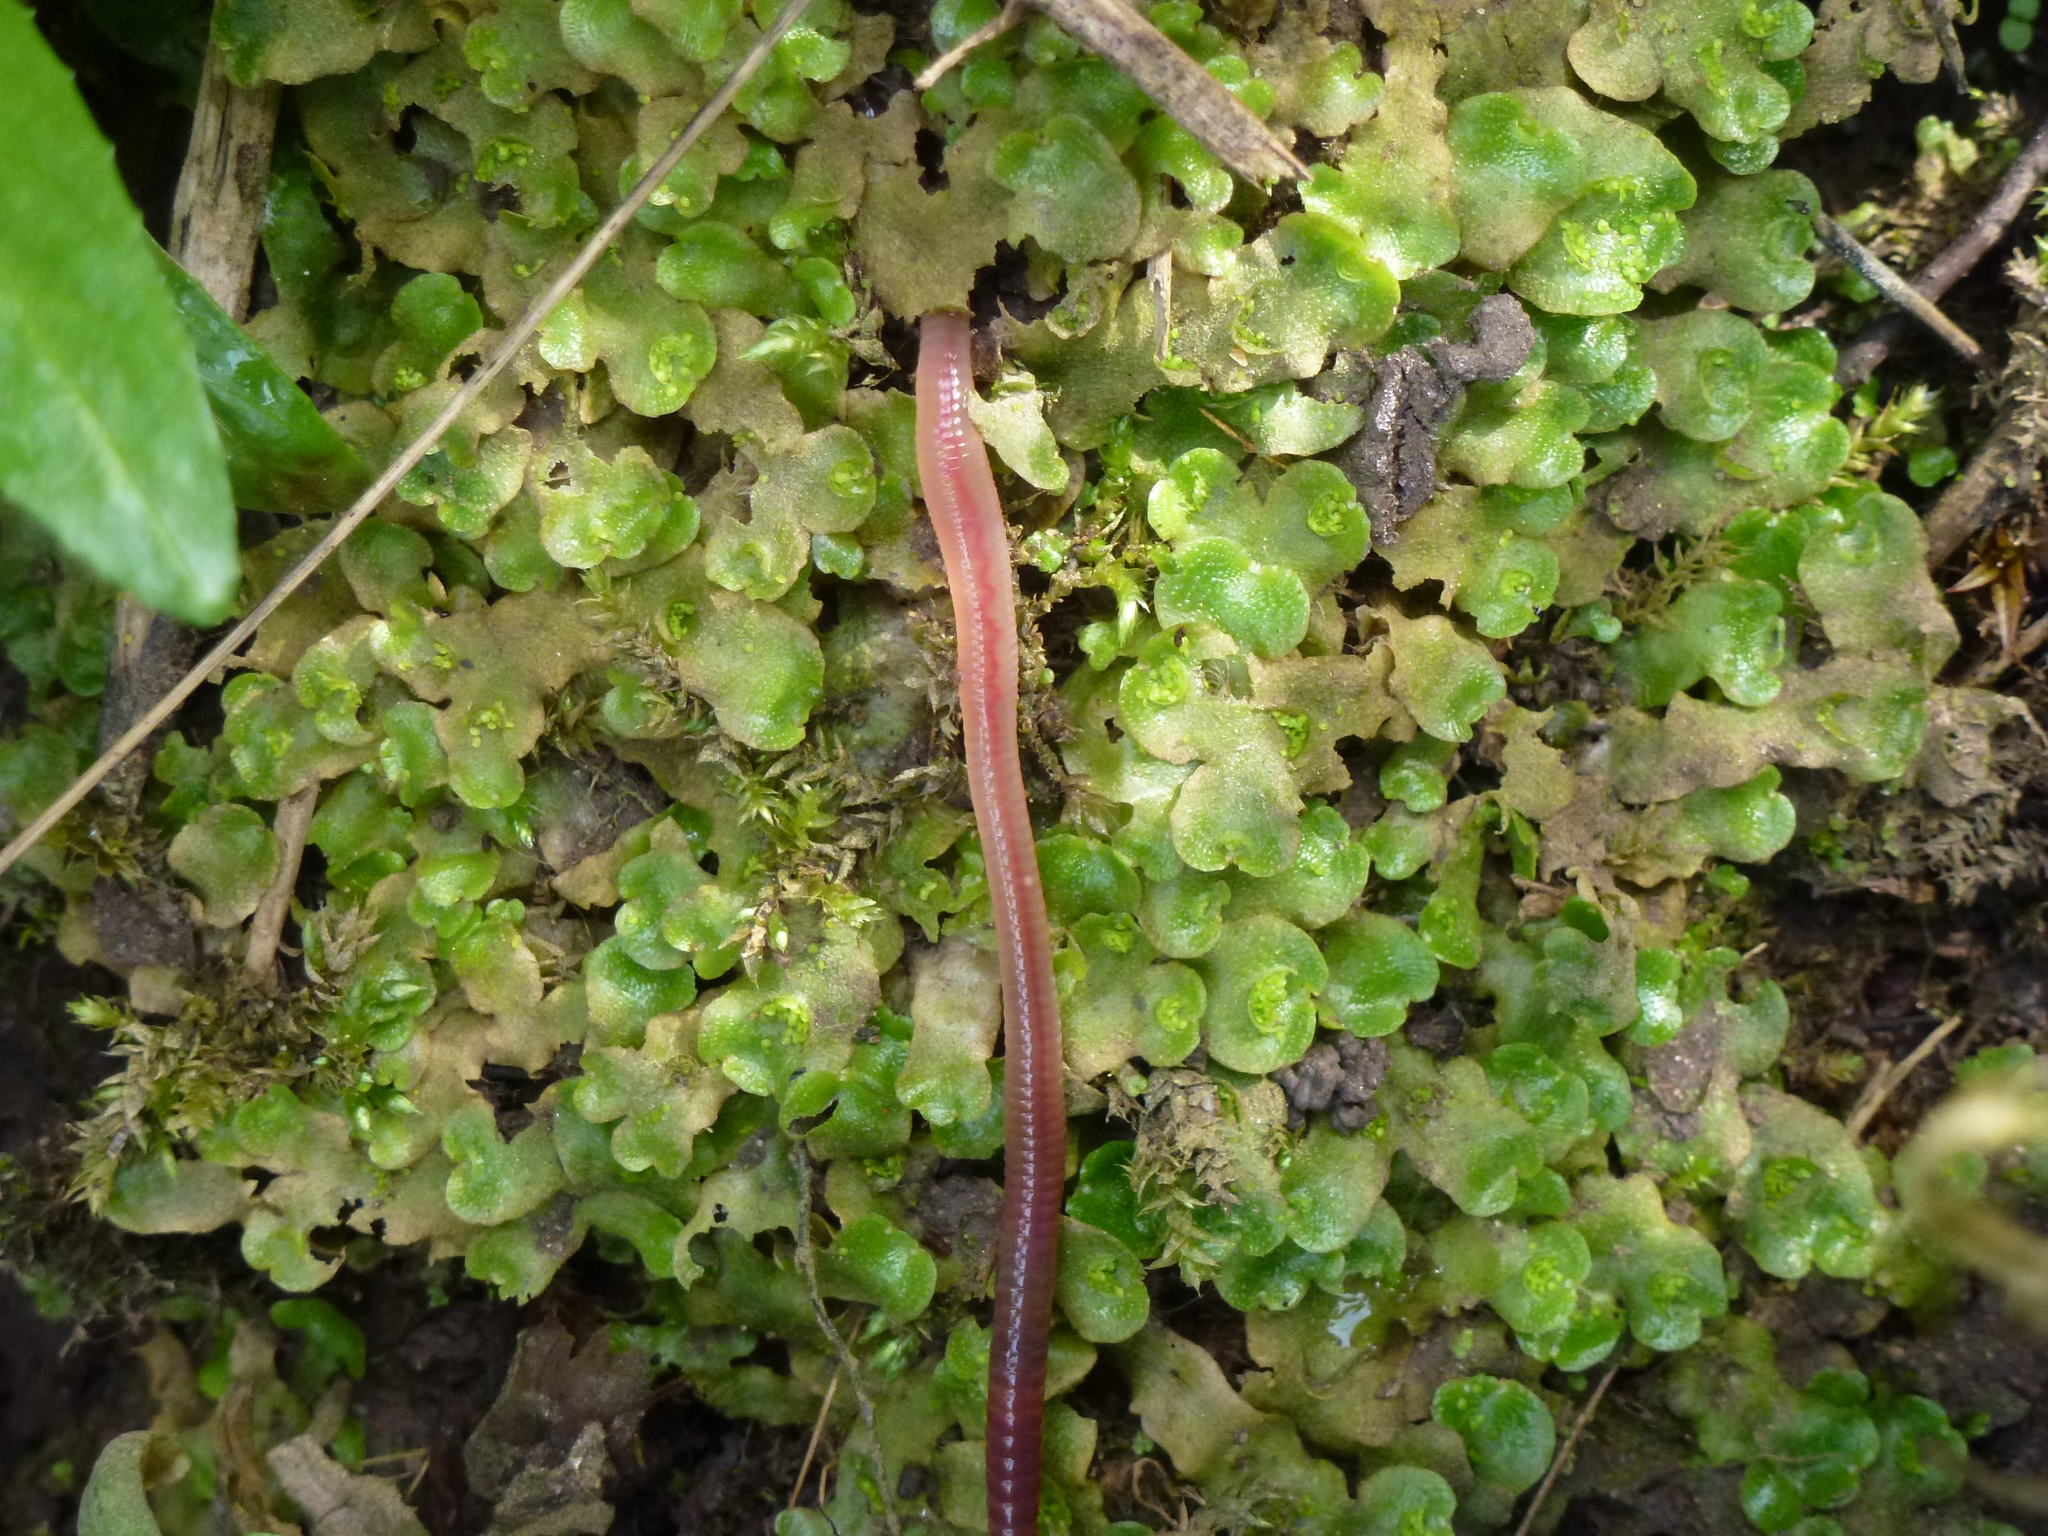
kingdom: Plantae
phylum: Marchantiophyta
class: Marchantiopsida
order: Lunulariales
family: Lunulariaceae
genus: Lunularia
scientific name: Lunularia cruciata
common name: Crescent-cup liverwort
